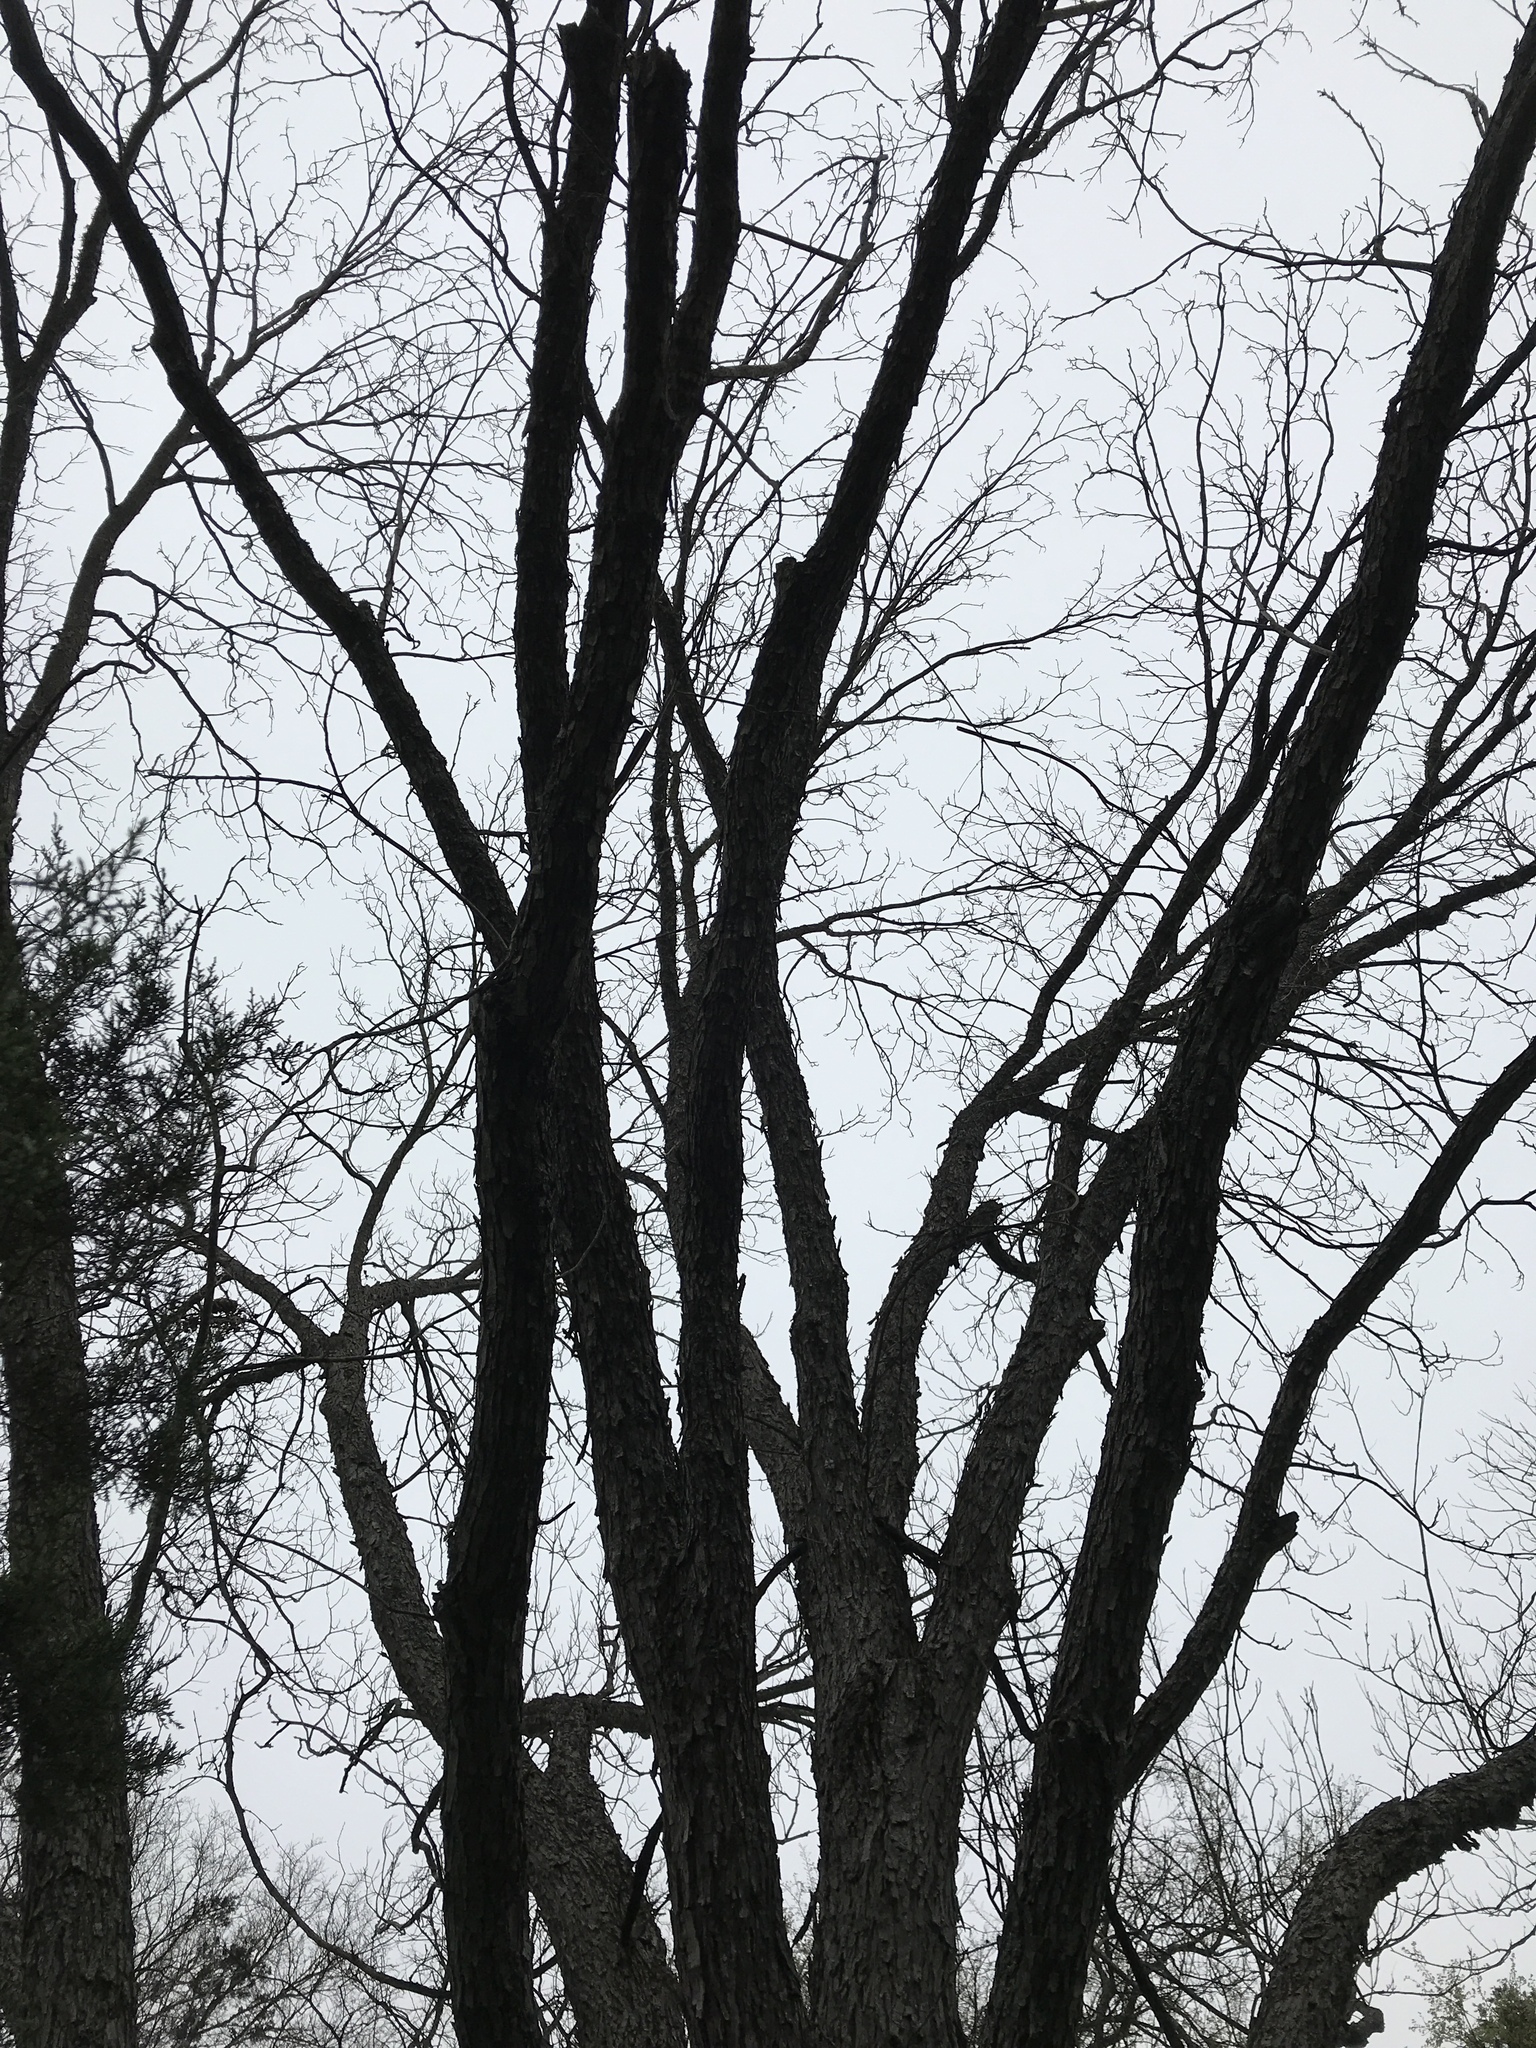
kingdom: Plantae
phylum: Tracheophyta
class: Magnoliopsida
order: Fagales
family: Juglandaceae
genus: Carya
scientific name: Carya illinoinensis
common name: Pecan
